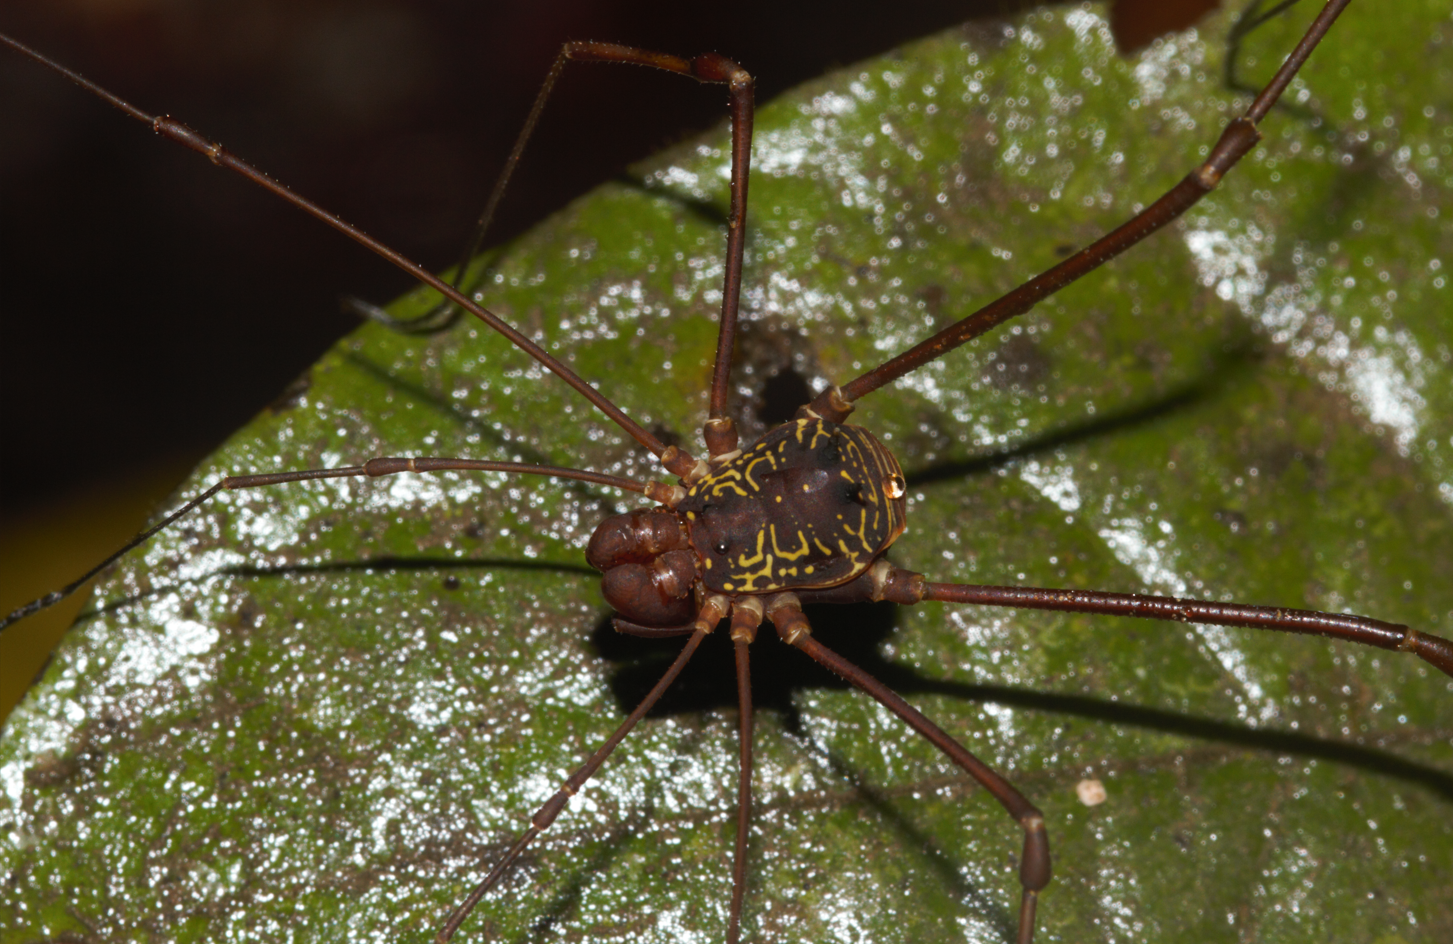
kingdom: Animalia
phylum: Arthropoda
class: Arachnida
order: Opiliones
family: Cosmetidae
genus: Paecilaema
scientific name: Paecilaema sigillatum
